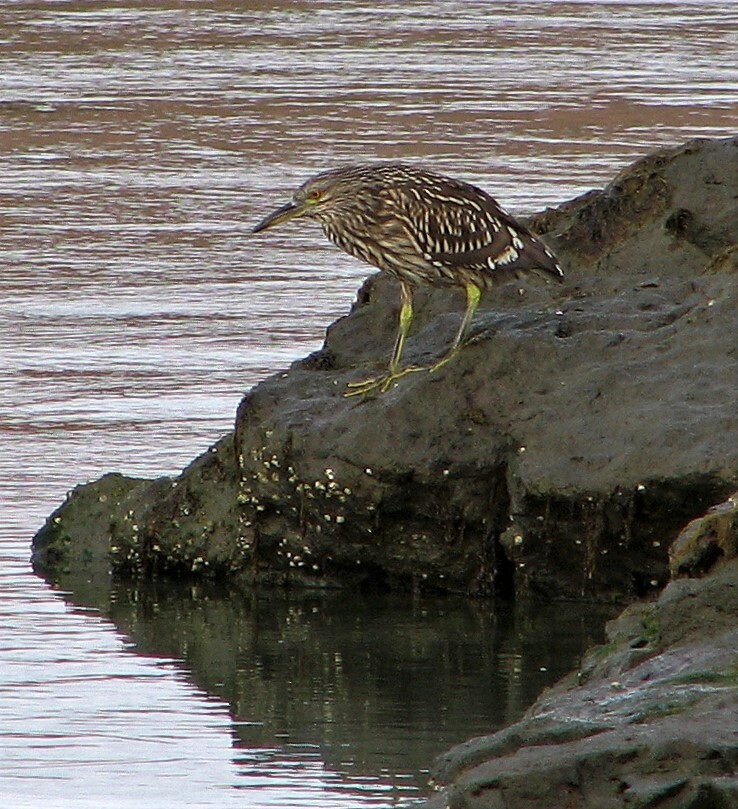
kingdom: Animalia
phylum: Chordata
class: Aves
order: Pelecaniformes
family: Ardeidae
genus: Nycticorax
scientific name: Nycticorax nycticorax
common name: Black-crowned night heron
